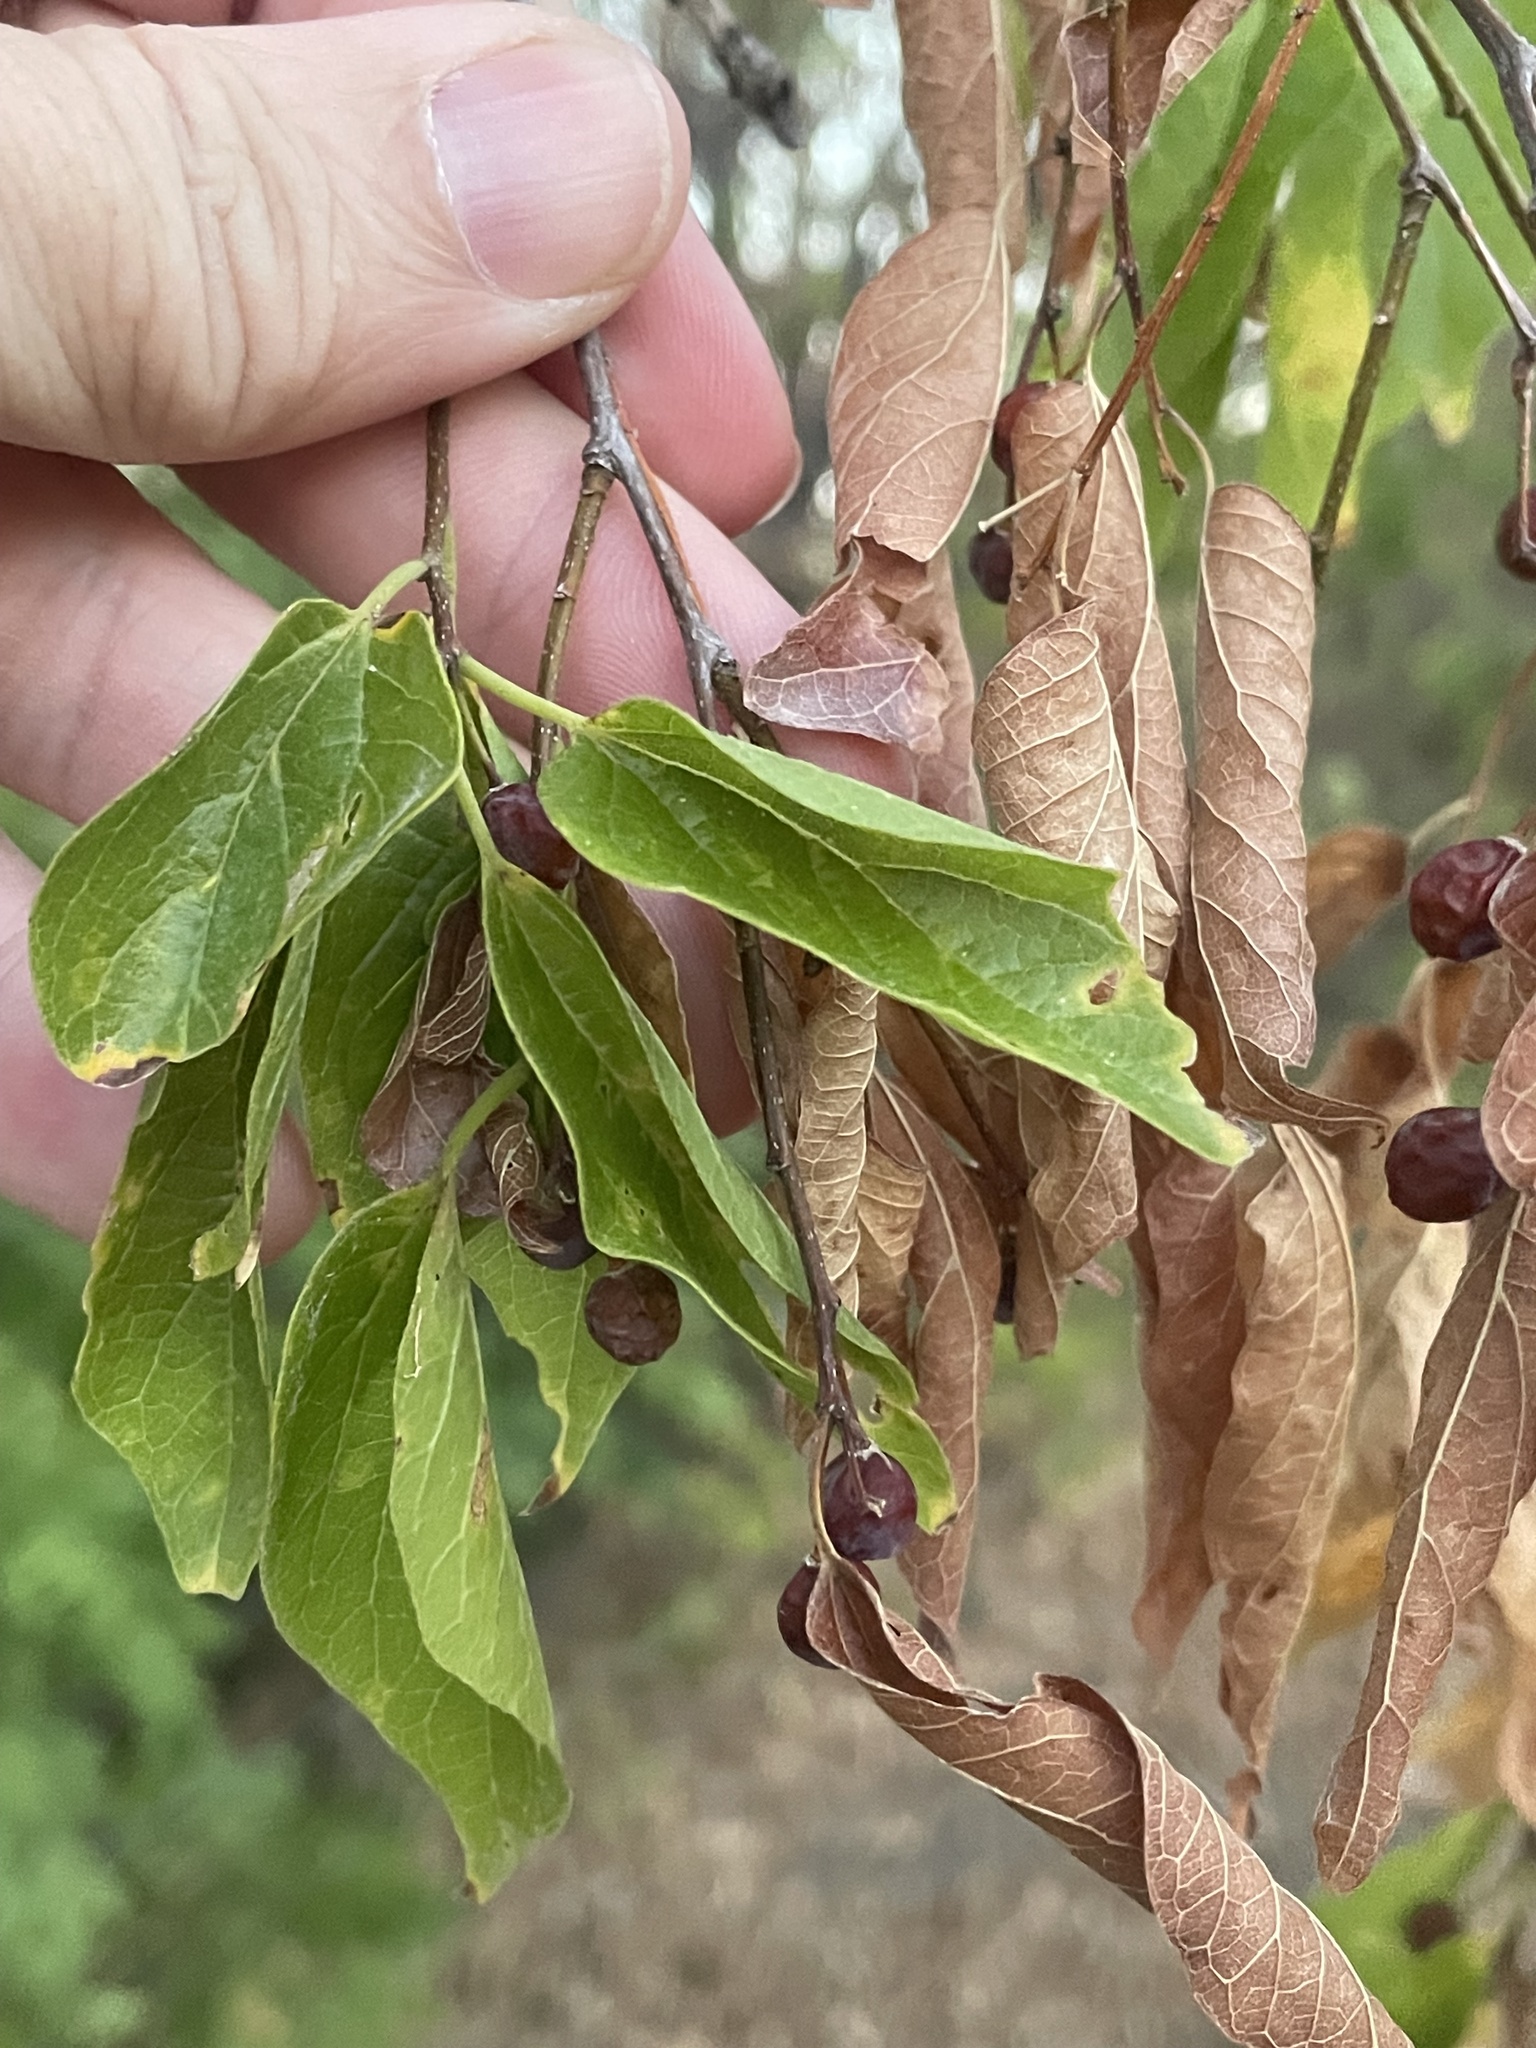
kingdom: Plantae
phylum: Tracheophyta
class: Magnoliopsida
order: Rosales
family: Cannabaceae
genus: Celtis
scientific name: Celtis laevigata
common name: Sugarberry
